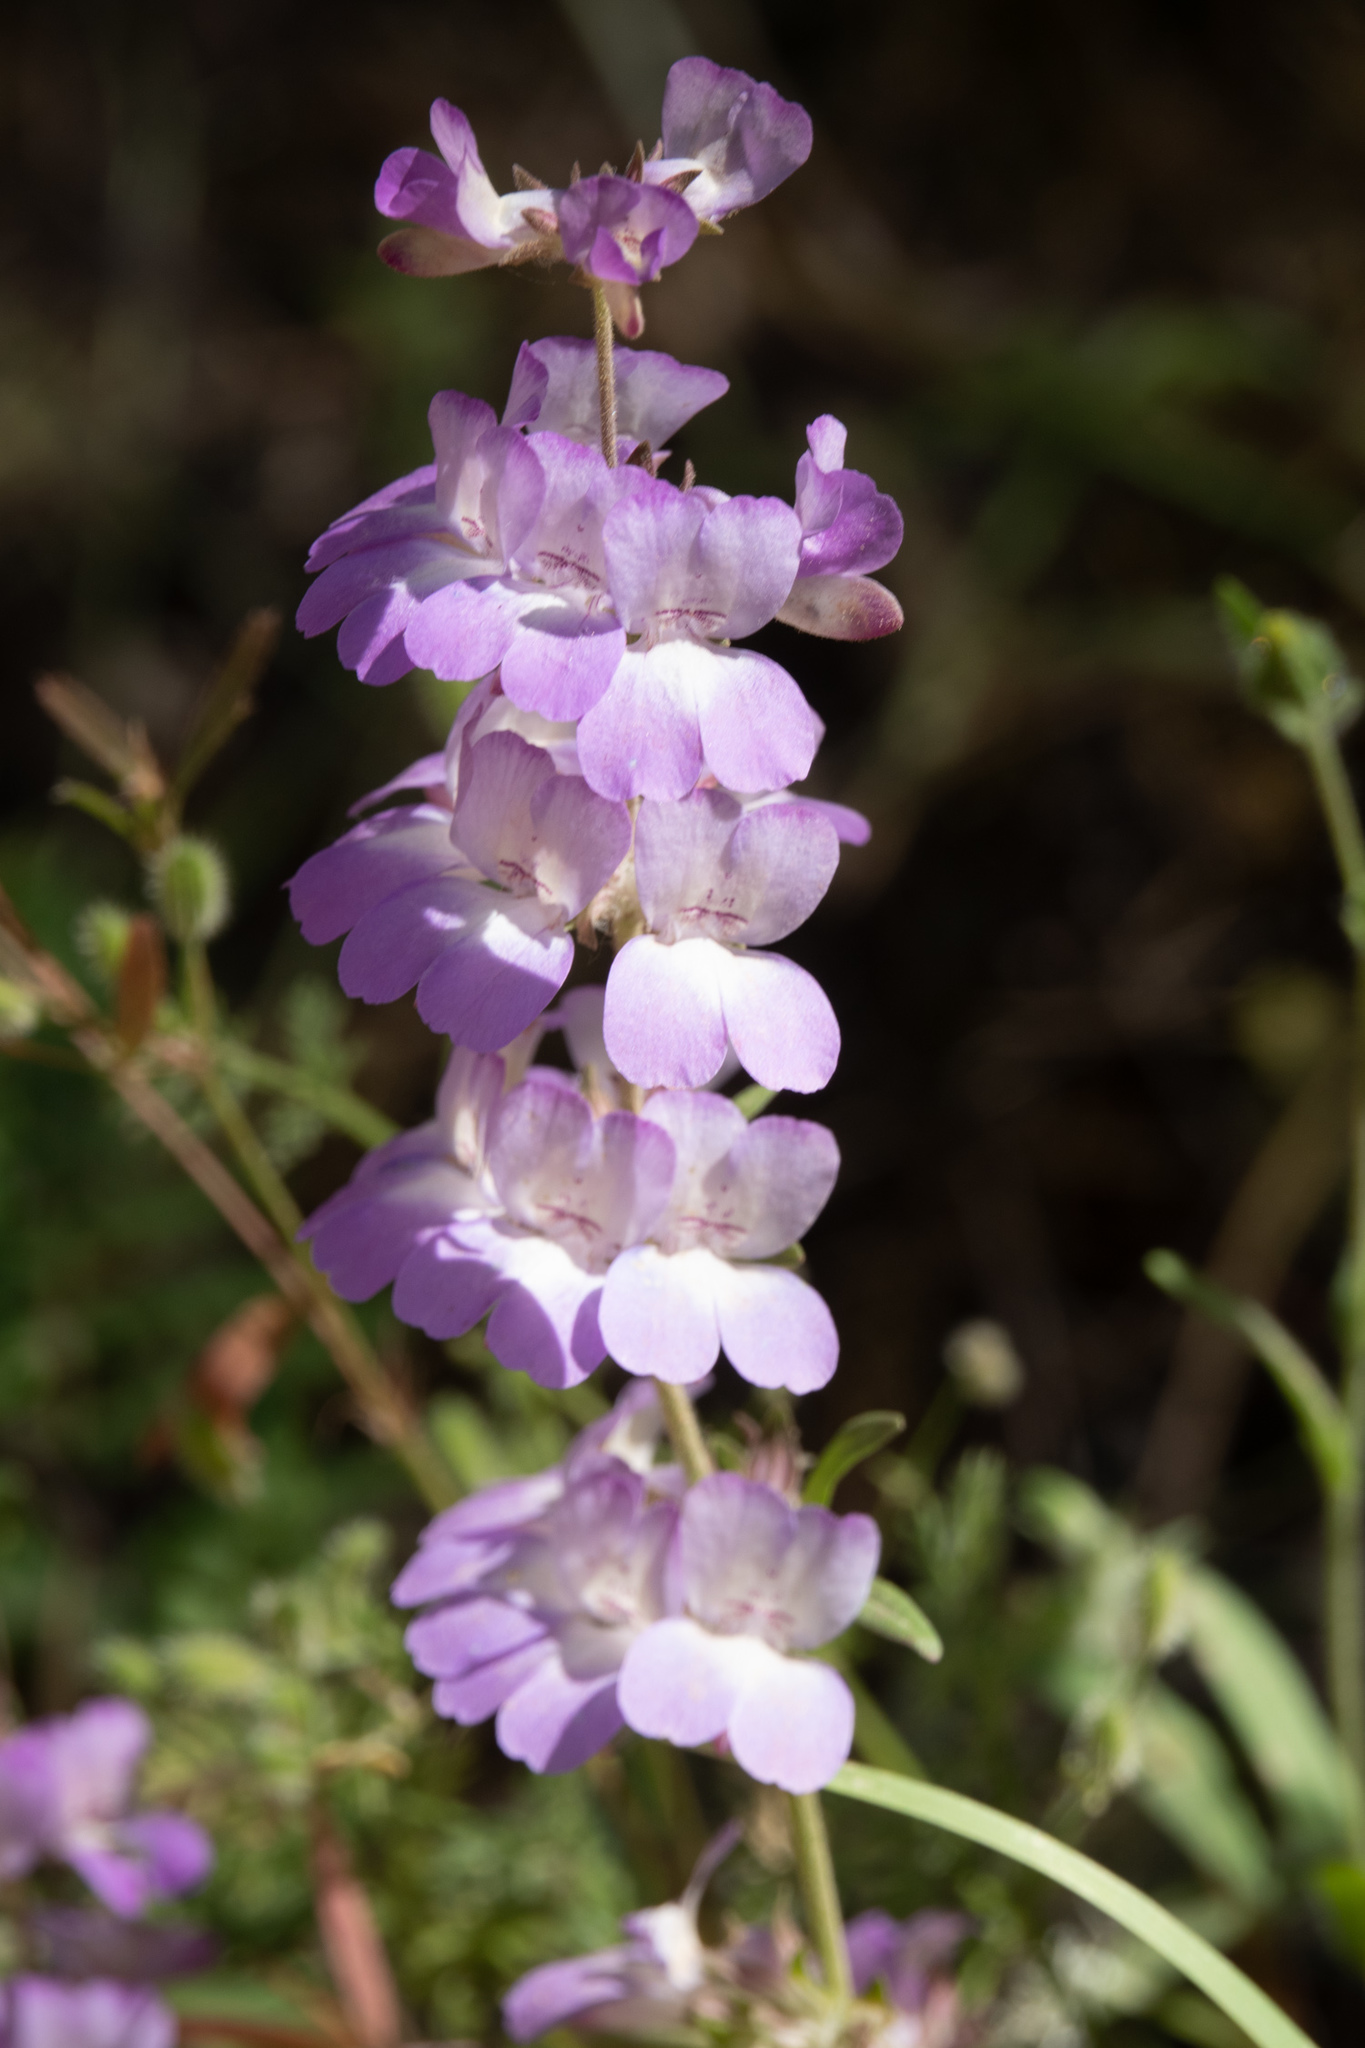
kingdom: Plantae
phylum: Tracheophyta
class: Magnoliopsida
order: Lamiales
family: Plantaginaceae
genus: Collinsia
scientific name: Collinsia heterophylla
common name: Chinese-houses
